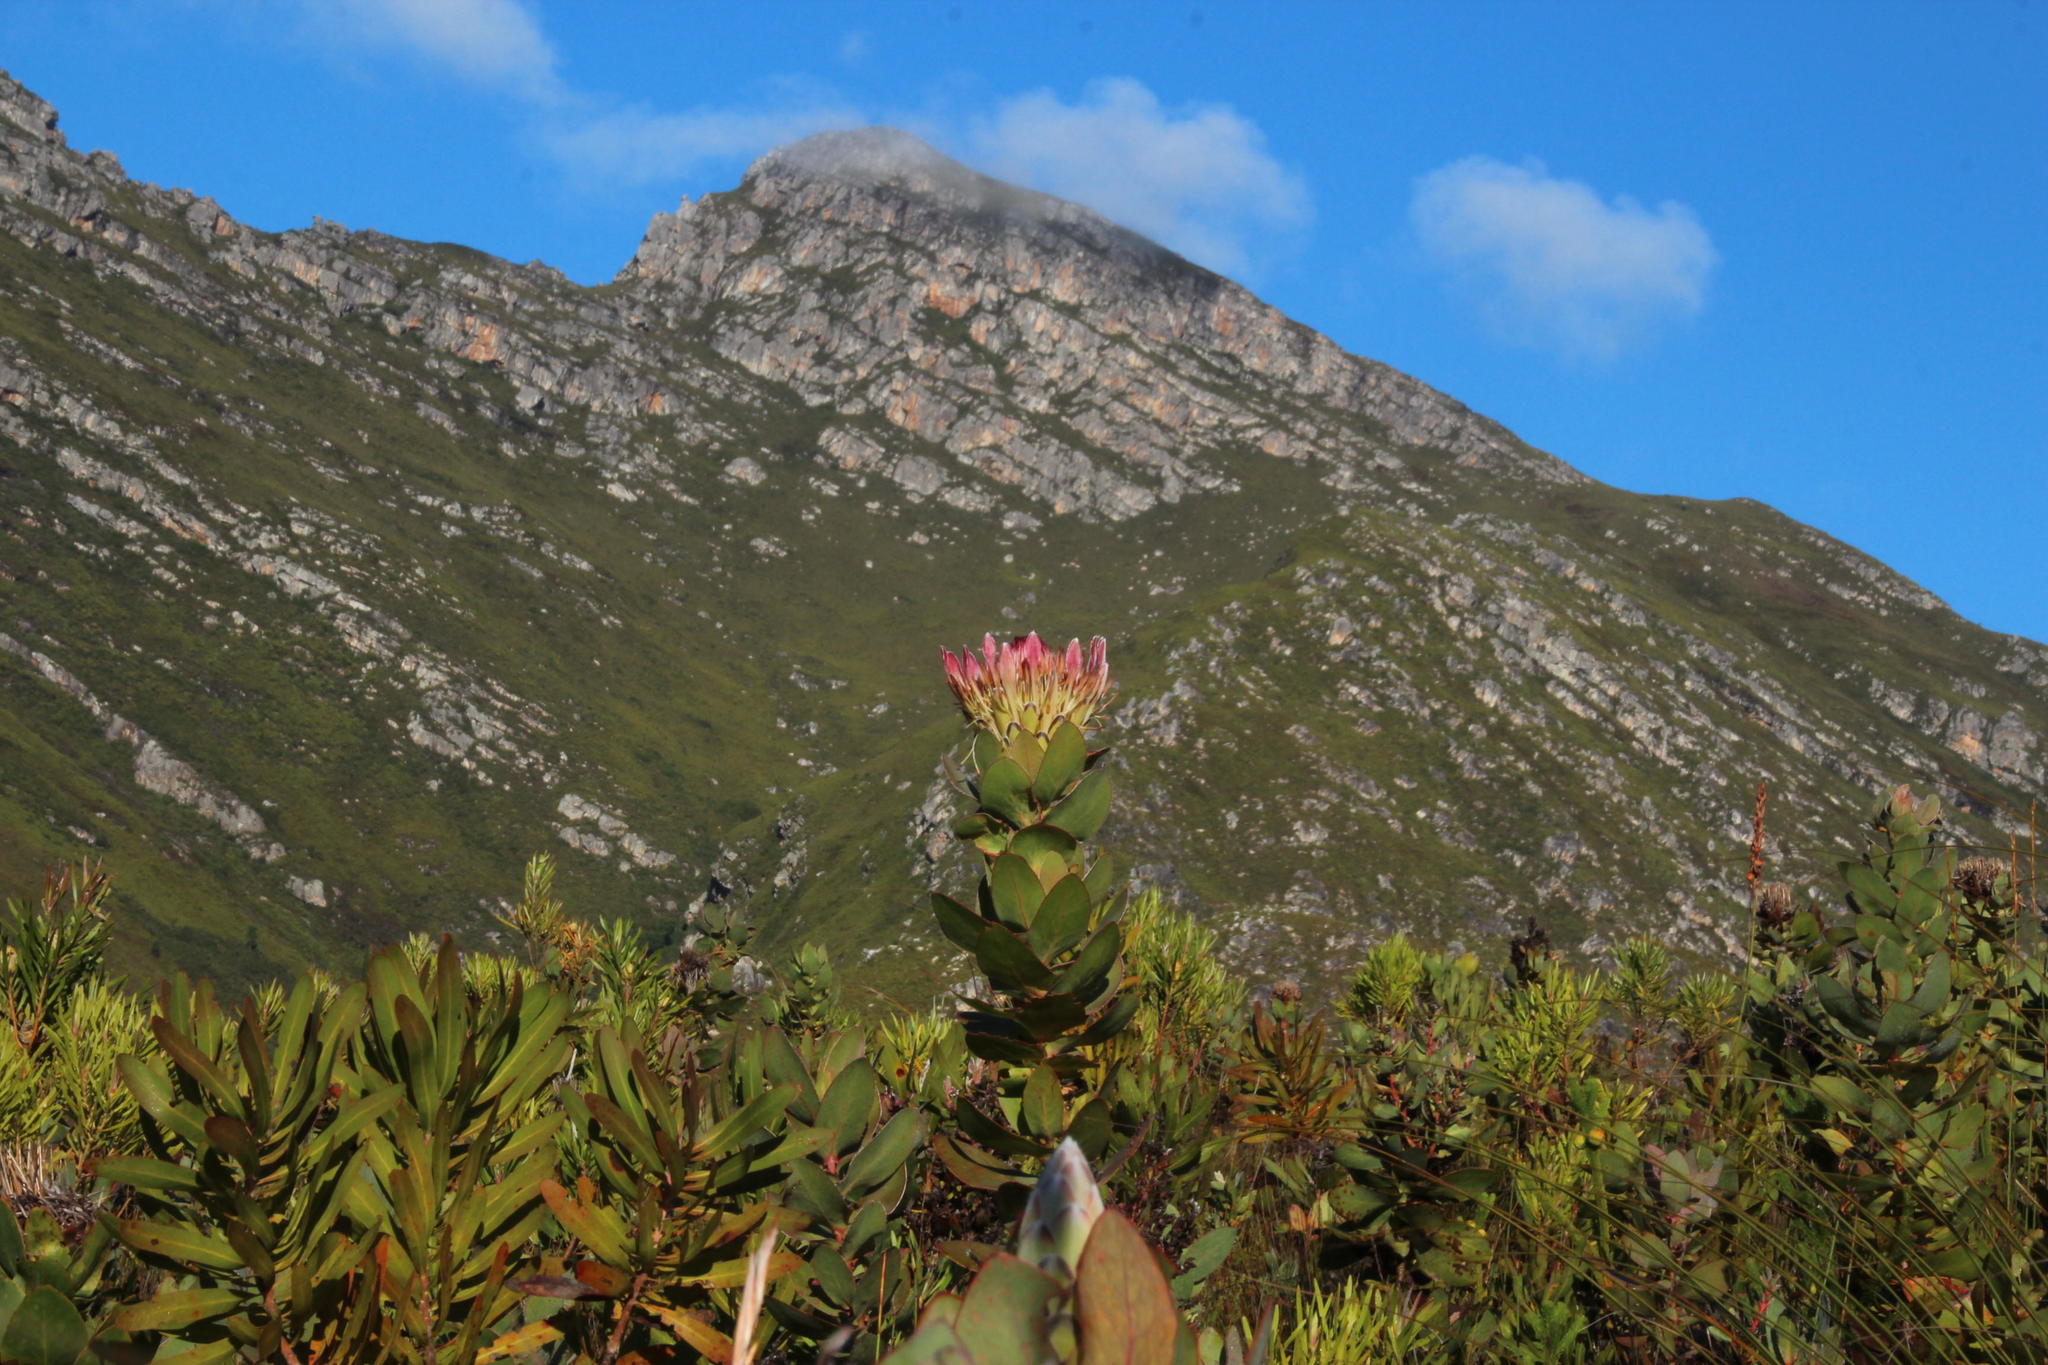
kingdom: Plantae
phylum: Tracheophyta
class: Magnoliopsida
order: Proteales
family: Proteaceae
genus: Protea
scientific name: Protea eximia
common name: Broad-leaved sugarbush
